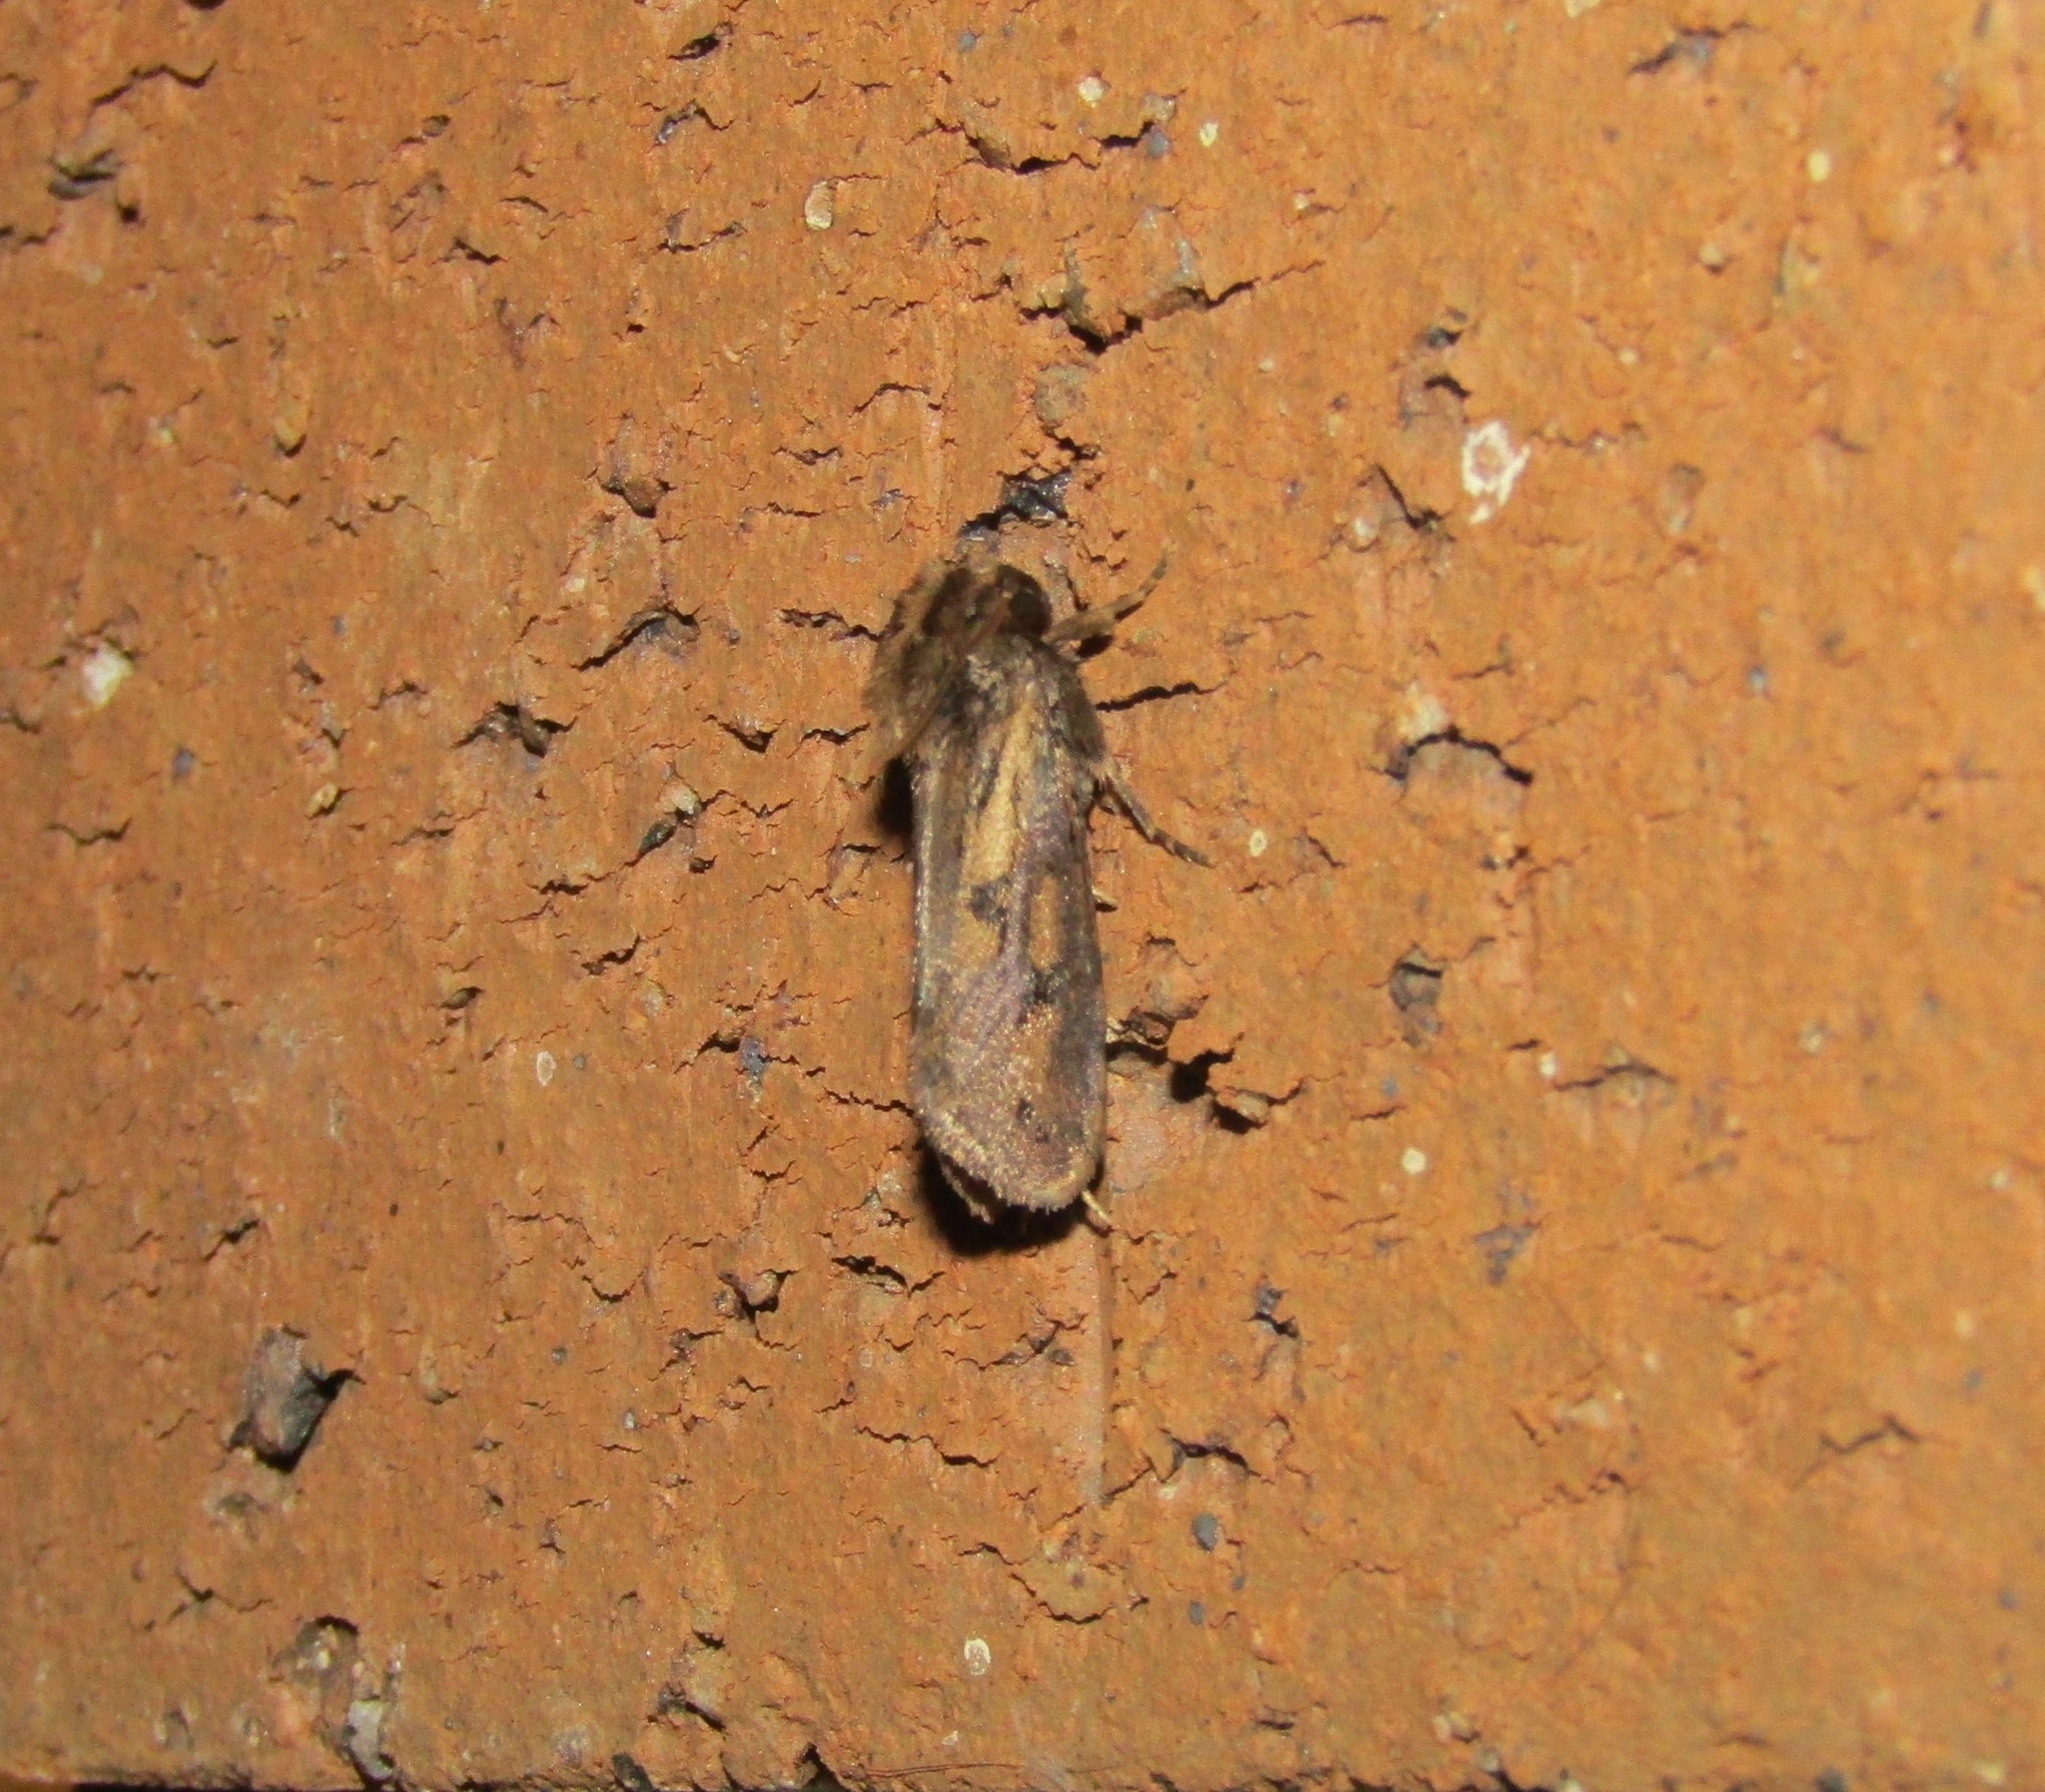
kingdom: Animalia
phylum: Arthropoda
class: Insecta
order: Lepidoptera
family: Tineidae
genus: Acrolophus
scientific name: Acrolophus popeanella
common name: Clemens' grass tubeworm moth
